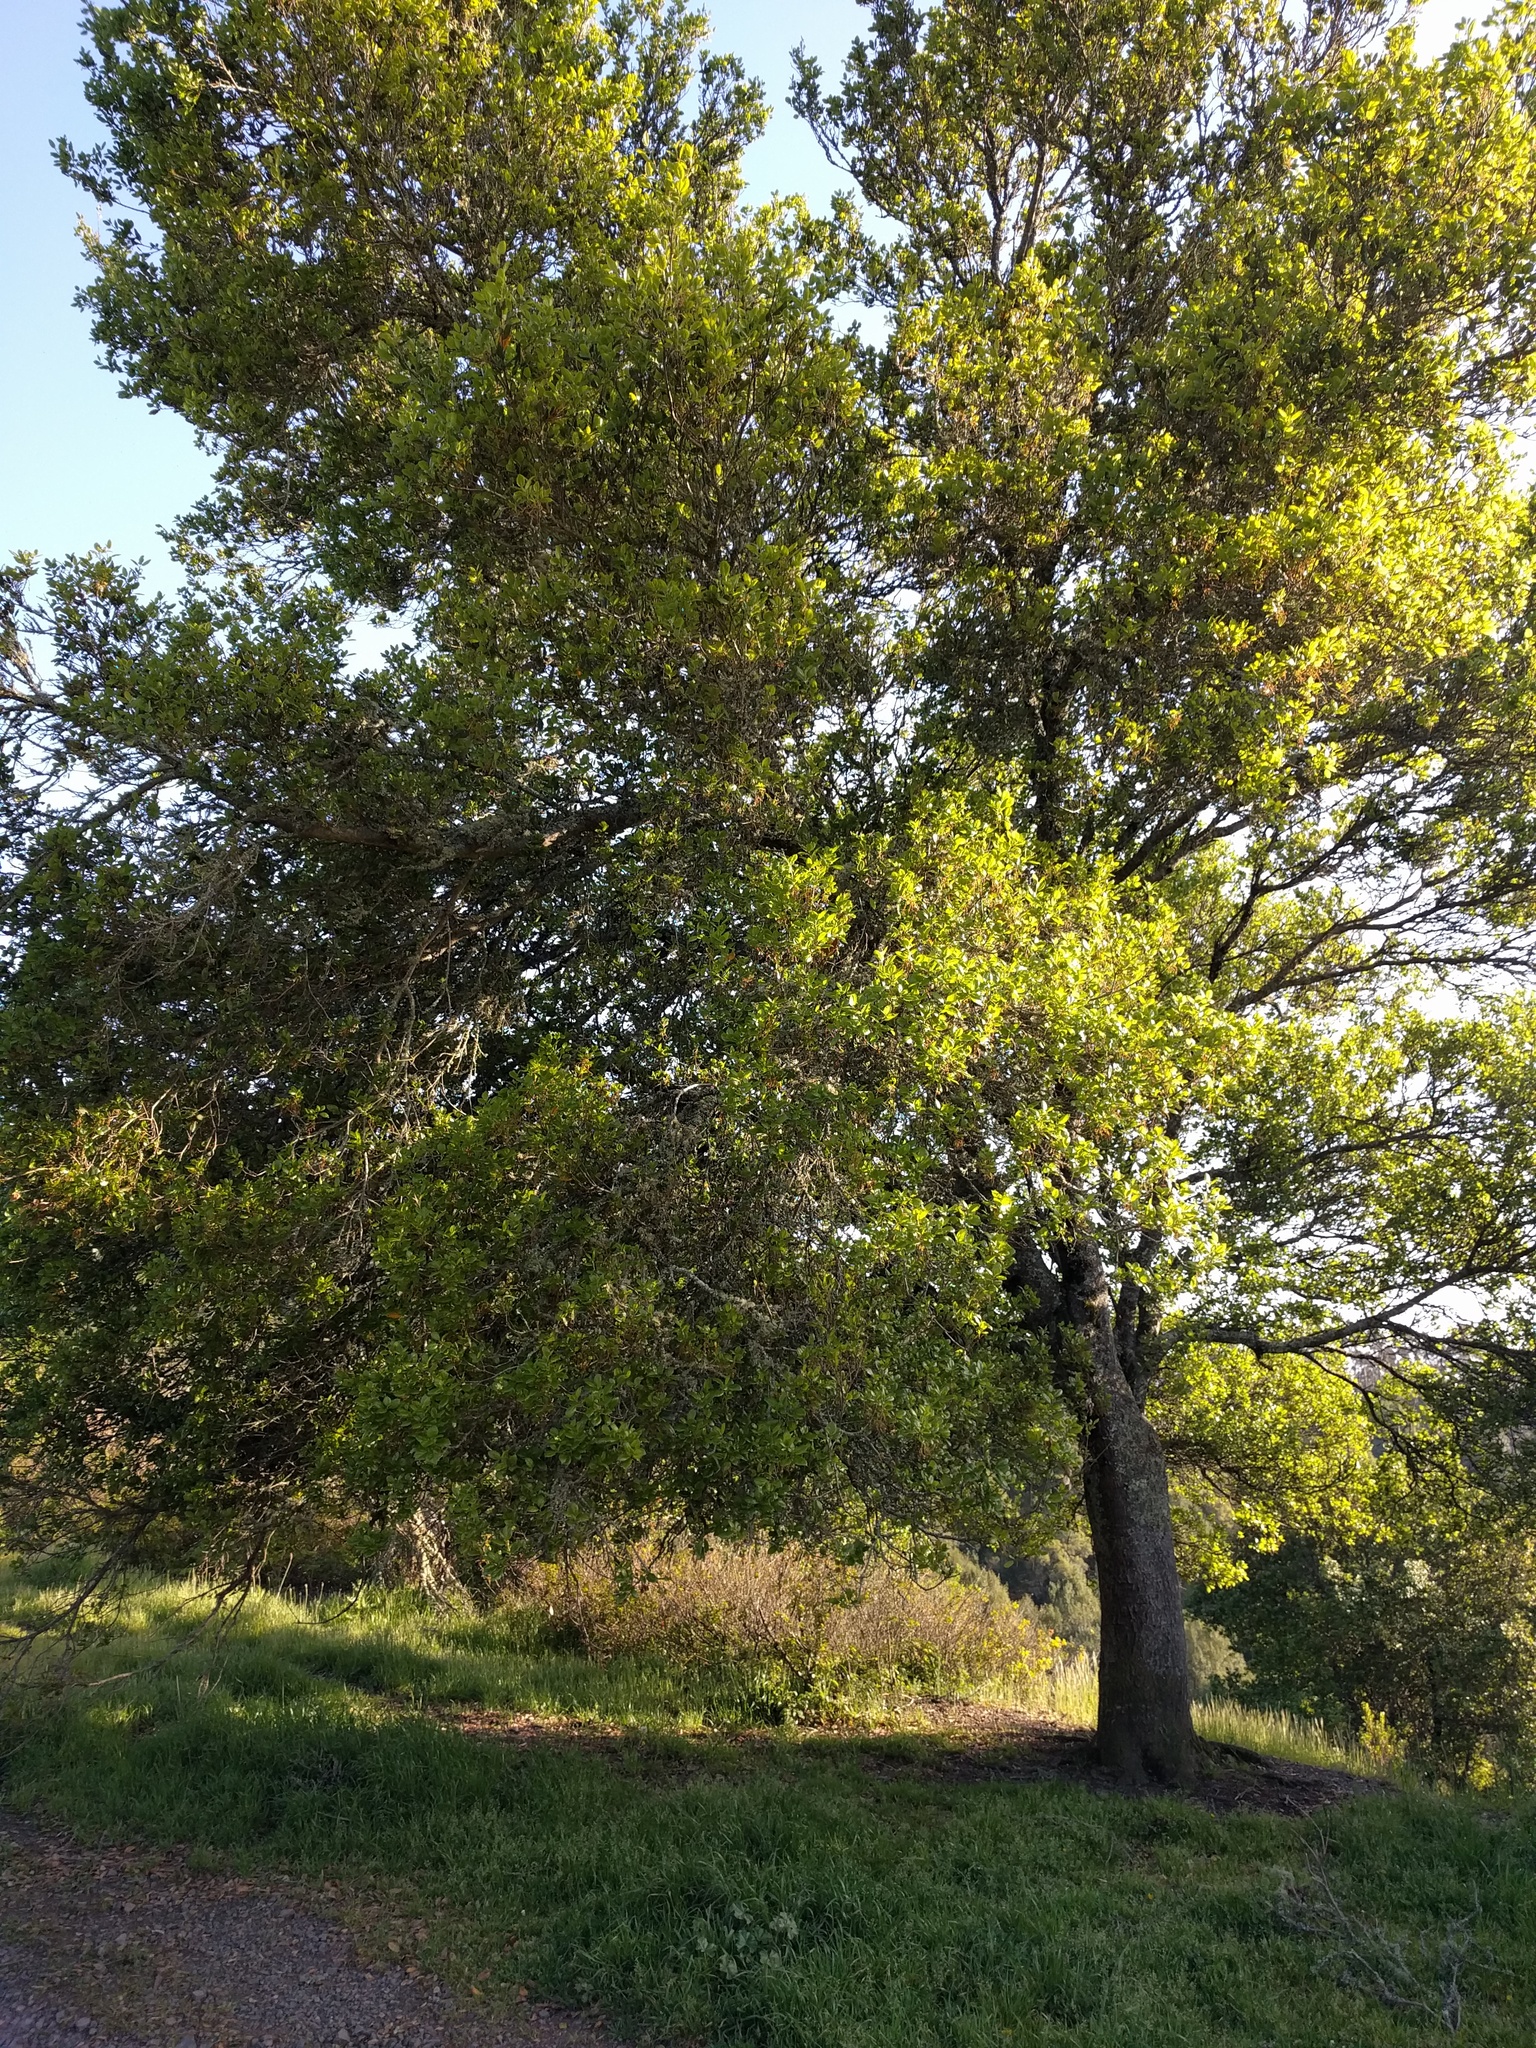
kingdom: Plantae
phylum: Tracheophyta
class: Magnoliopsida
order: Fagales
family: Fagaceae
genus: Quercus
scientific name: Quercus agrifolia
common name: California live oak
